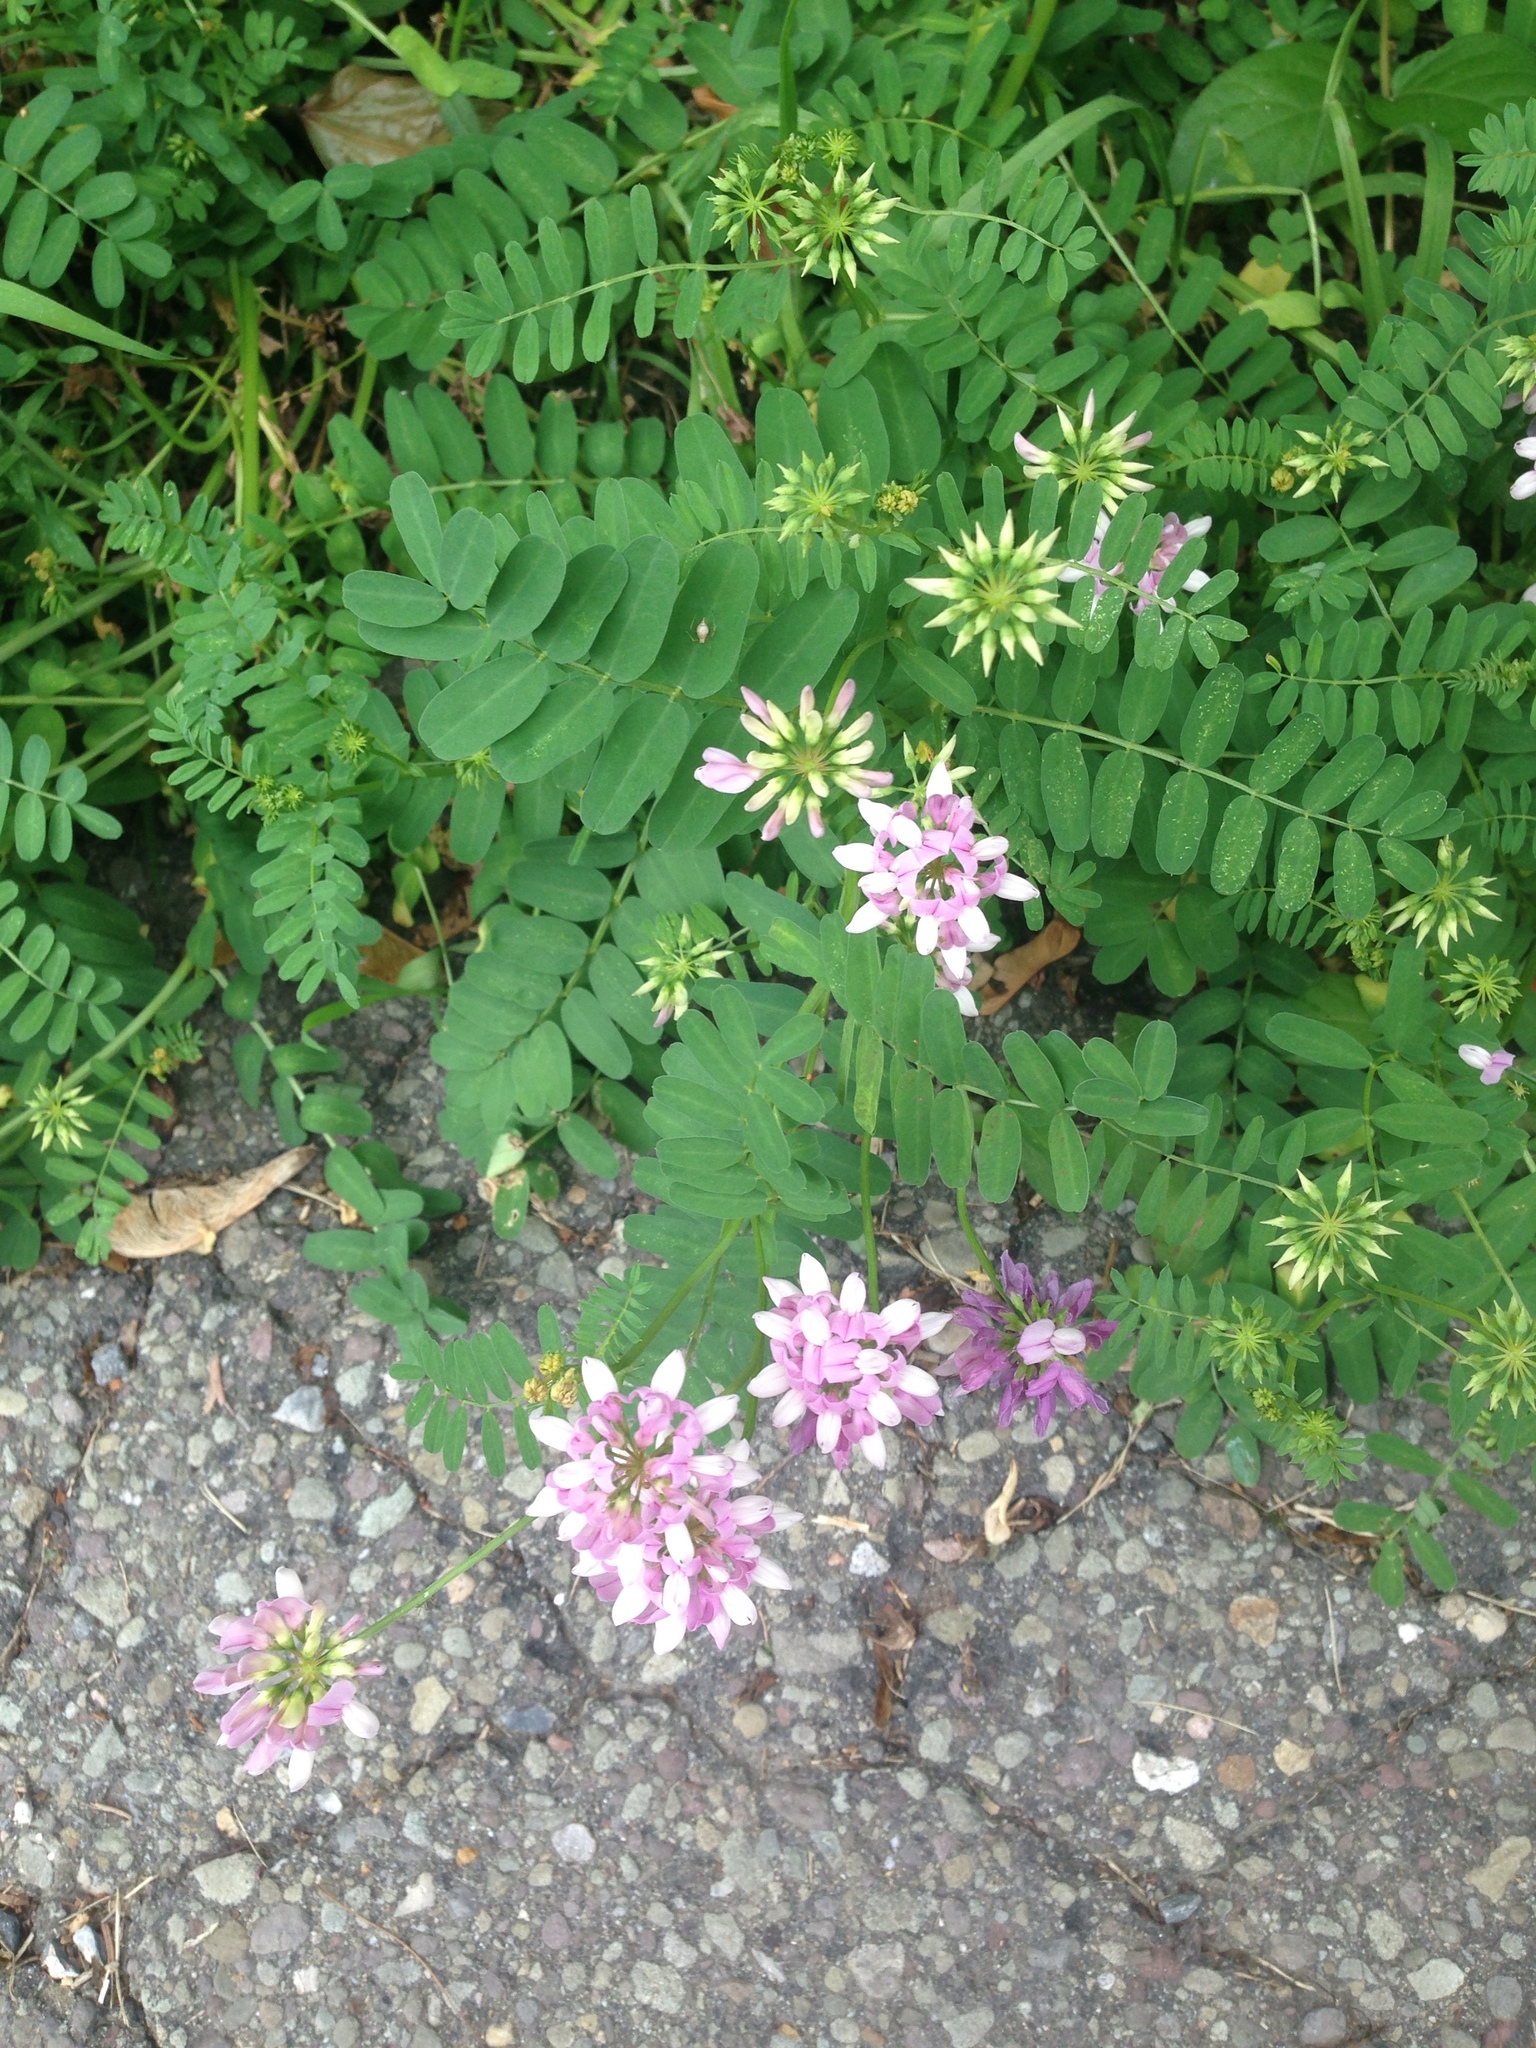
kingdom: Plantae
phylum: Tracheophyta
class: Magnoliopsida
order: Fabales
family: Fabaceae
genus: Coronilla
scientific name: Coronilla varia
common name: Crownvetch
